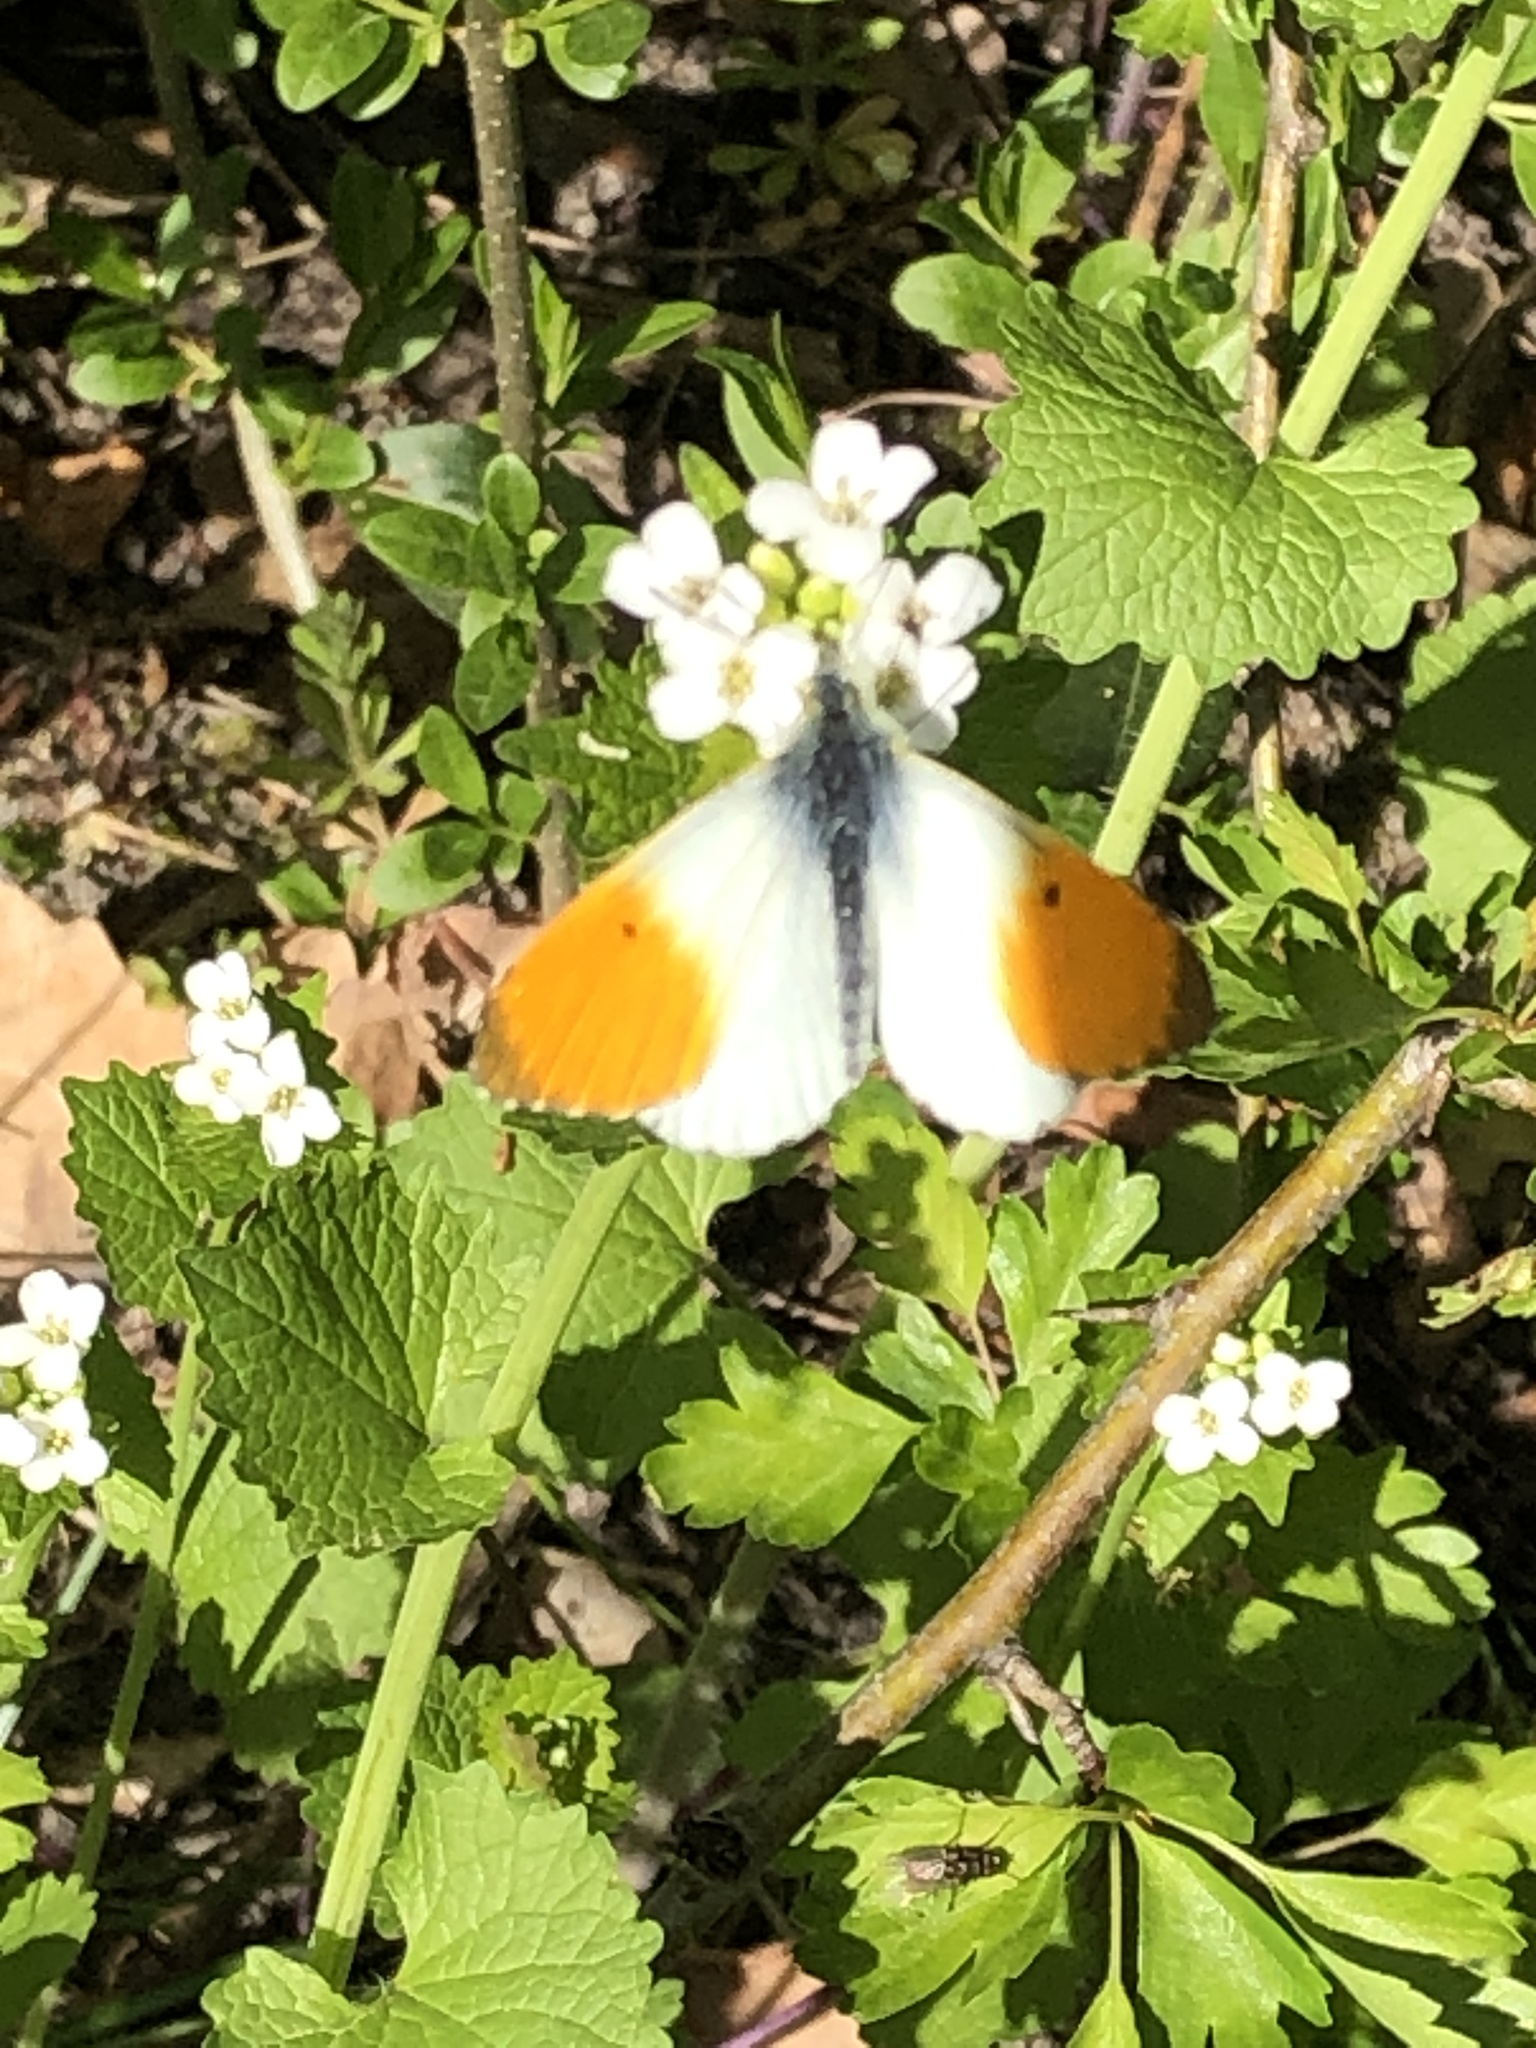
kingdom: Animalia
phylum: Arthropoda
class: Insecta
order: Lepidoptera
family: Pieridae
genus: Anthocharis
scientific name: Anthocharis cardamines
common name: Orange-tip
